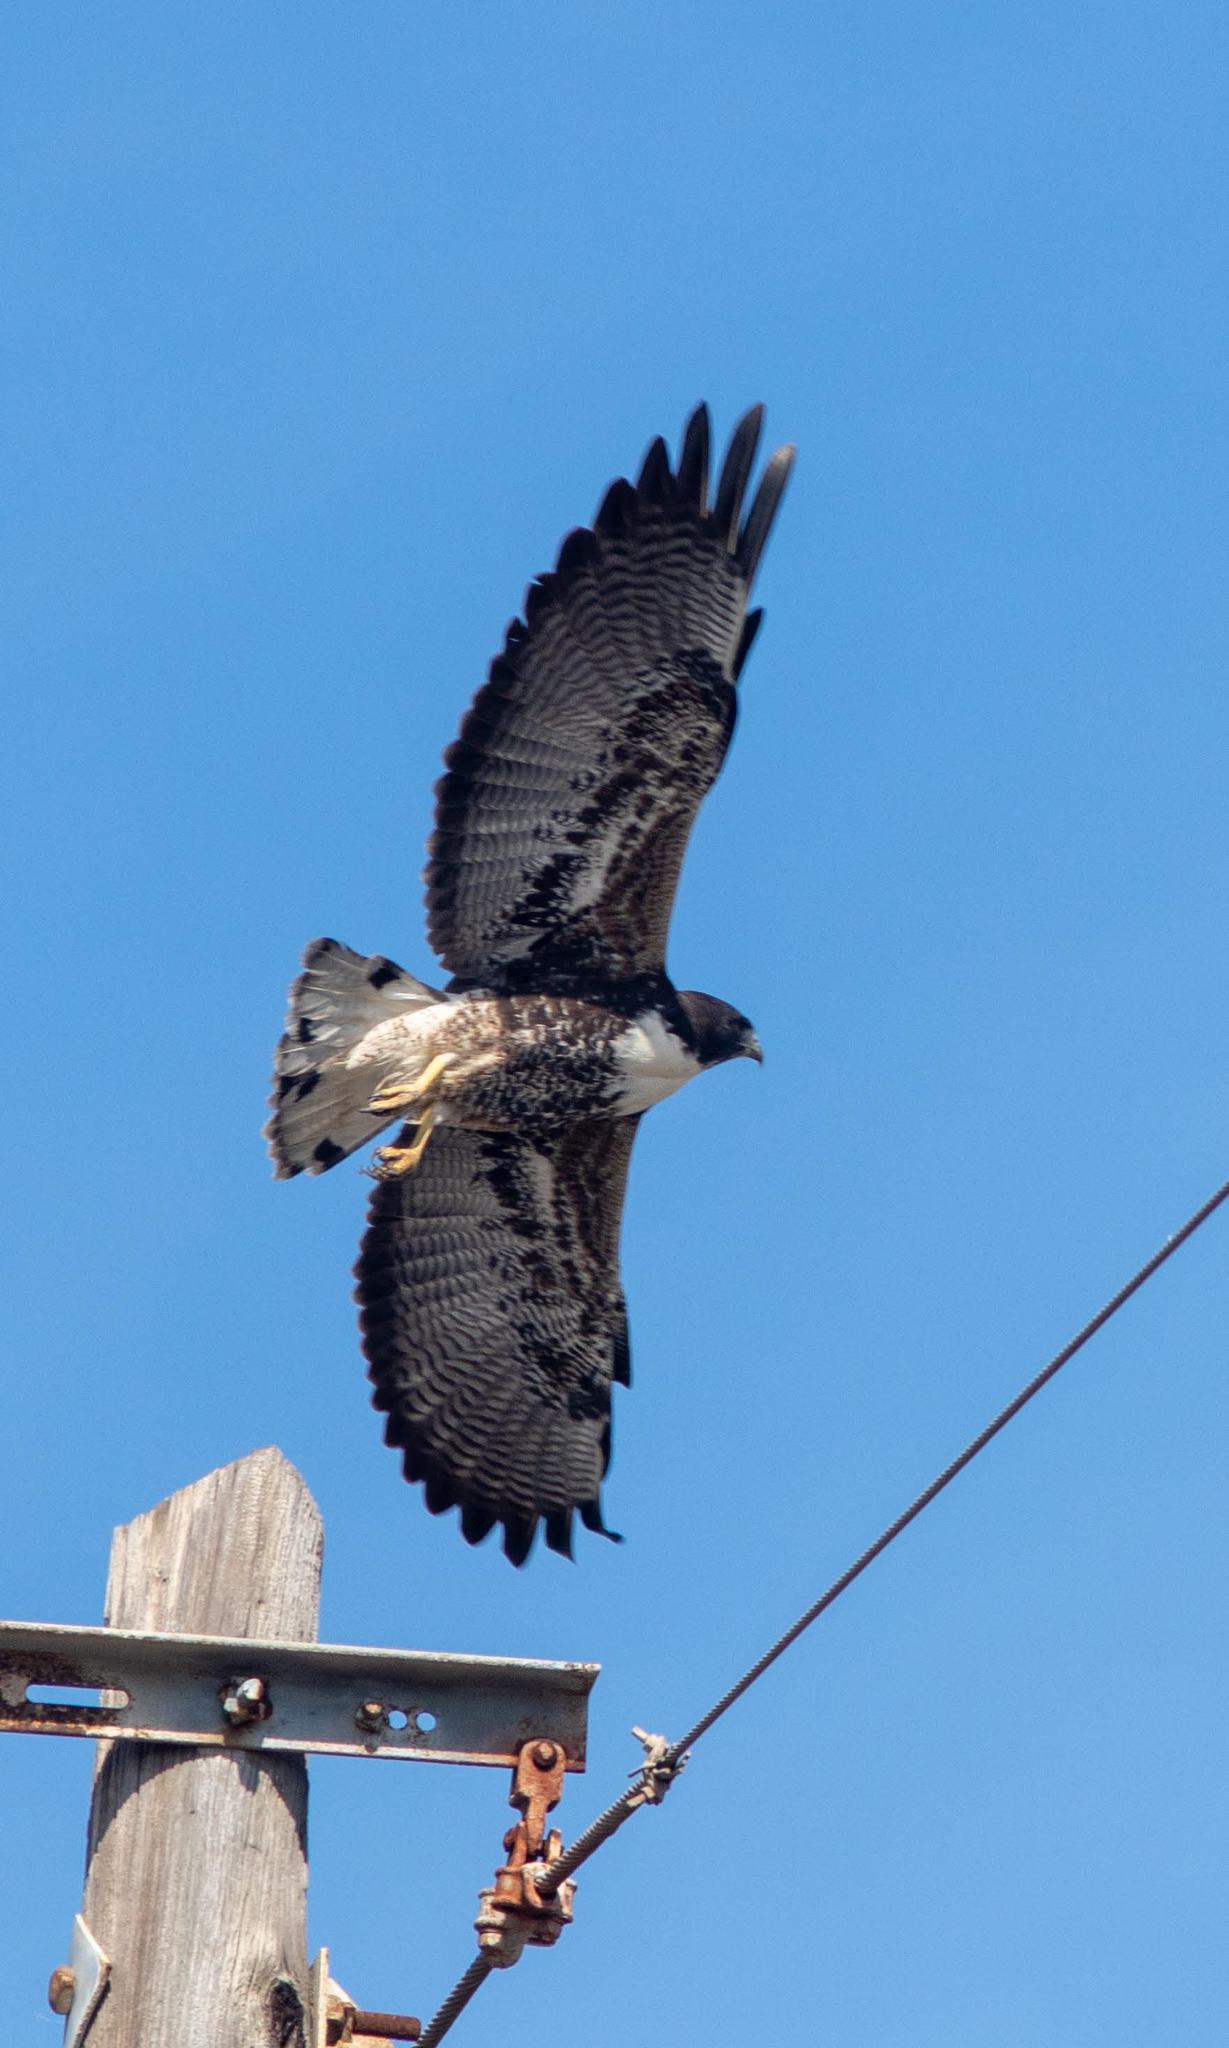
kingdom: Animalia
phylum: Chordata
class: Aves
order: Accipitriformes
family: Accipitridae
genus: Buteo
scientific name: Buteo albicaudatus
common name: White-tailed hawk
